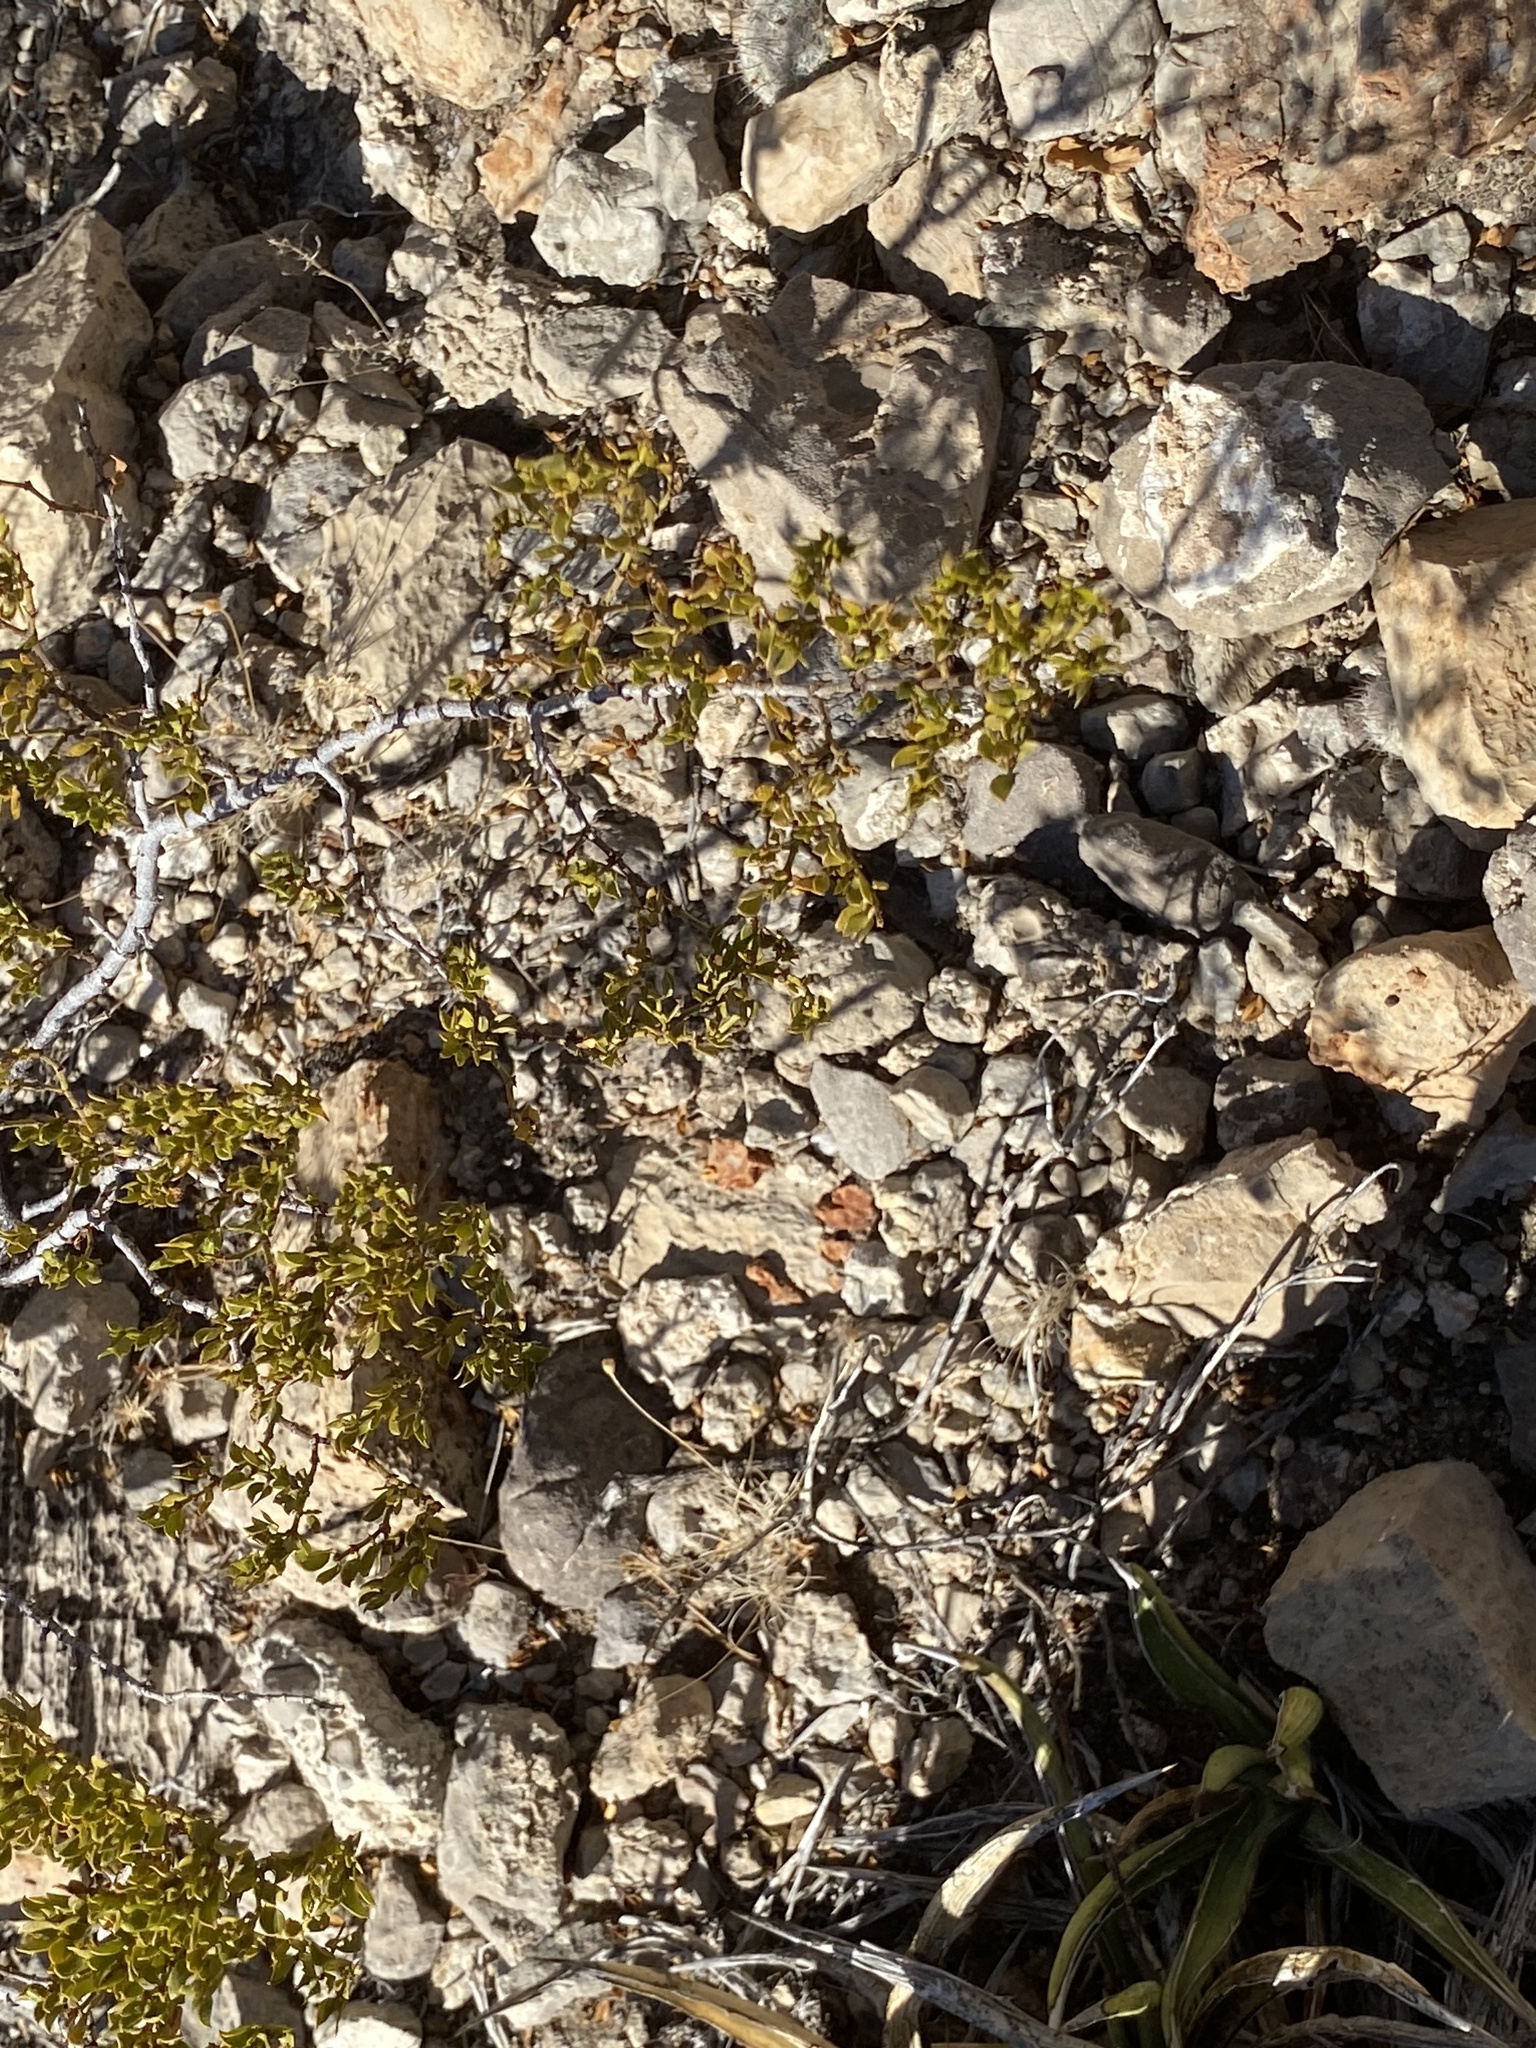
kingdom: Plantae
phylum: Tracheophyta
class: Magnoliopsida
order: Zygophyllales
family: Zygophyllaceae
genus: Larrea
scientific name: Larrea tridentata
